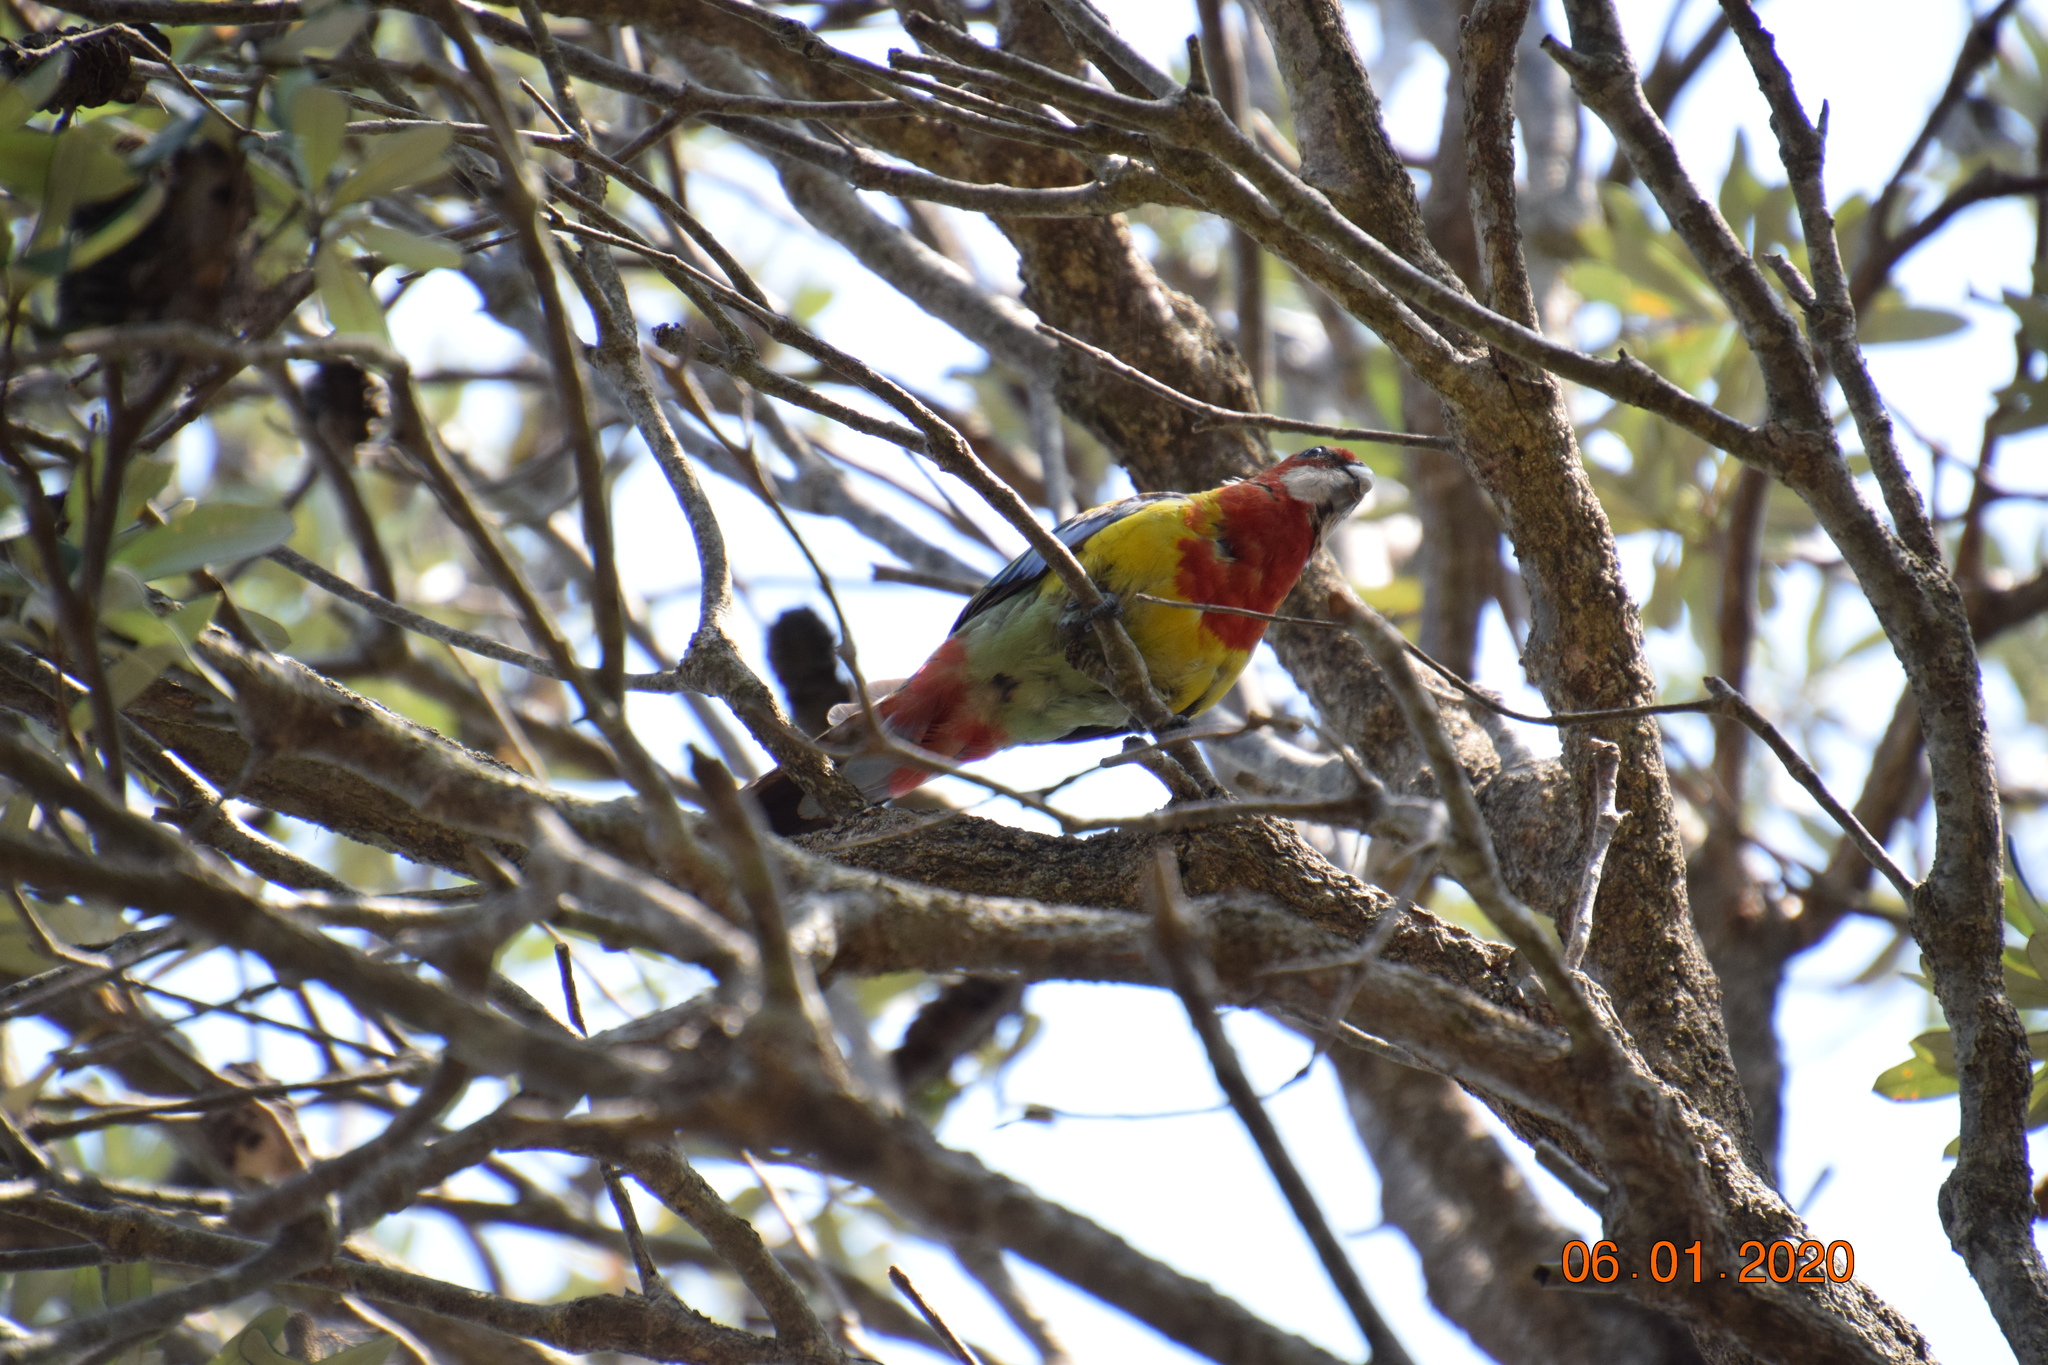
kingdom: Animalia
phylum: Chordata
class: Aves
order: Psittaciformes
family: Psittacidae
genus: Platycercus
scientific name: Platycercus eximius
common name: Eastern rosella
